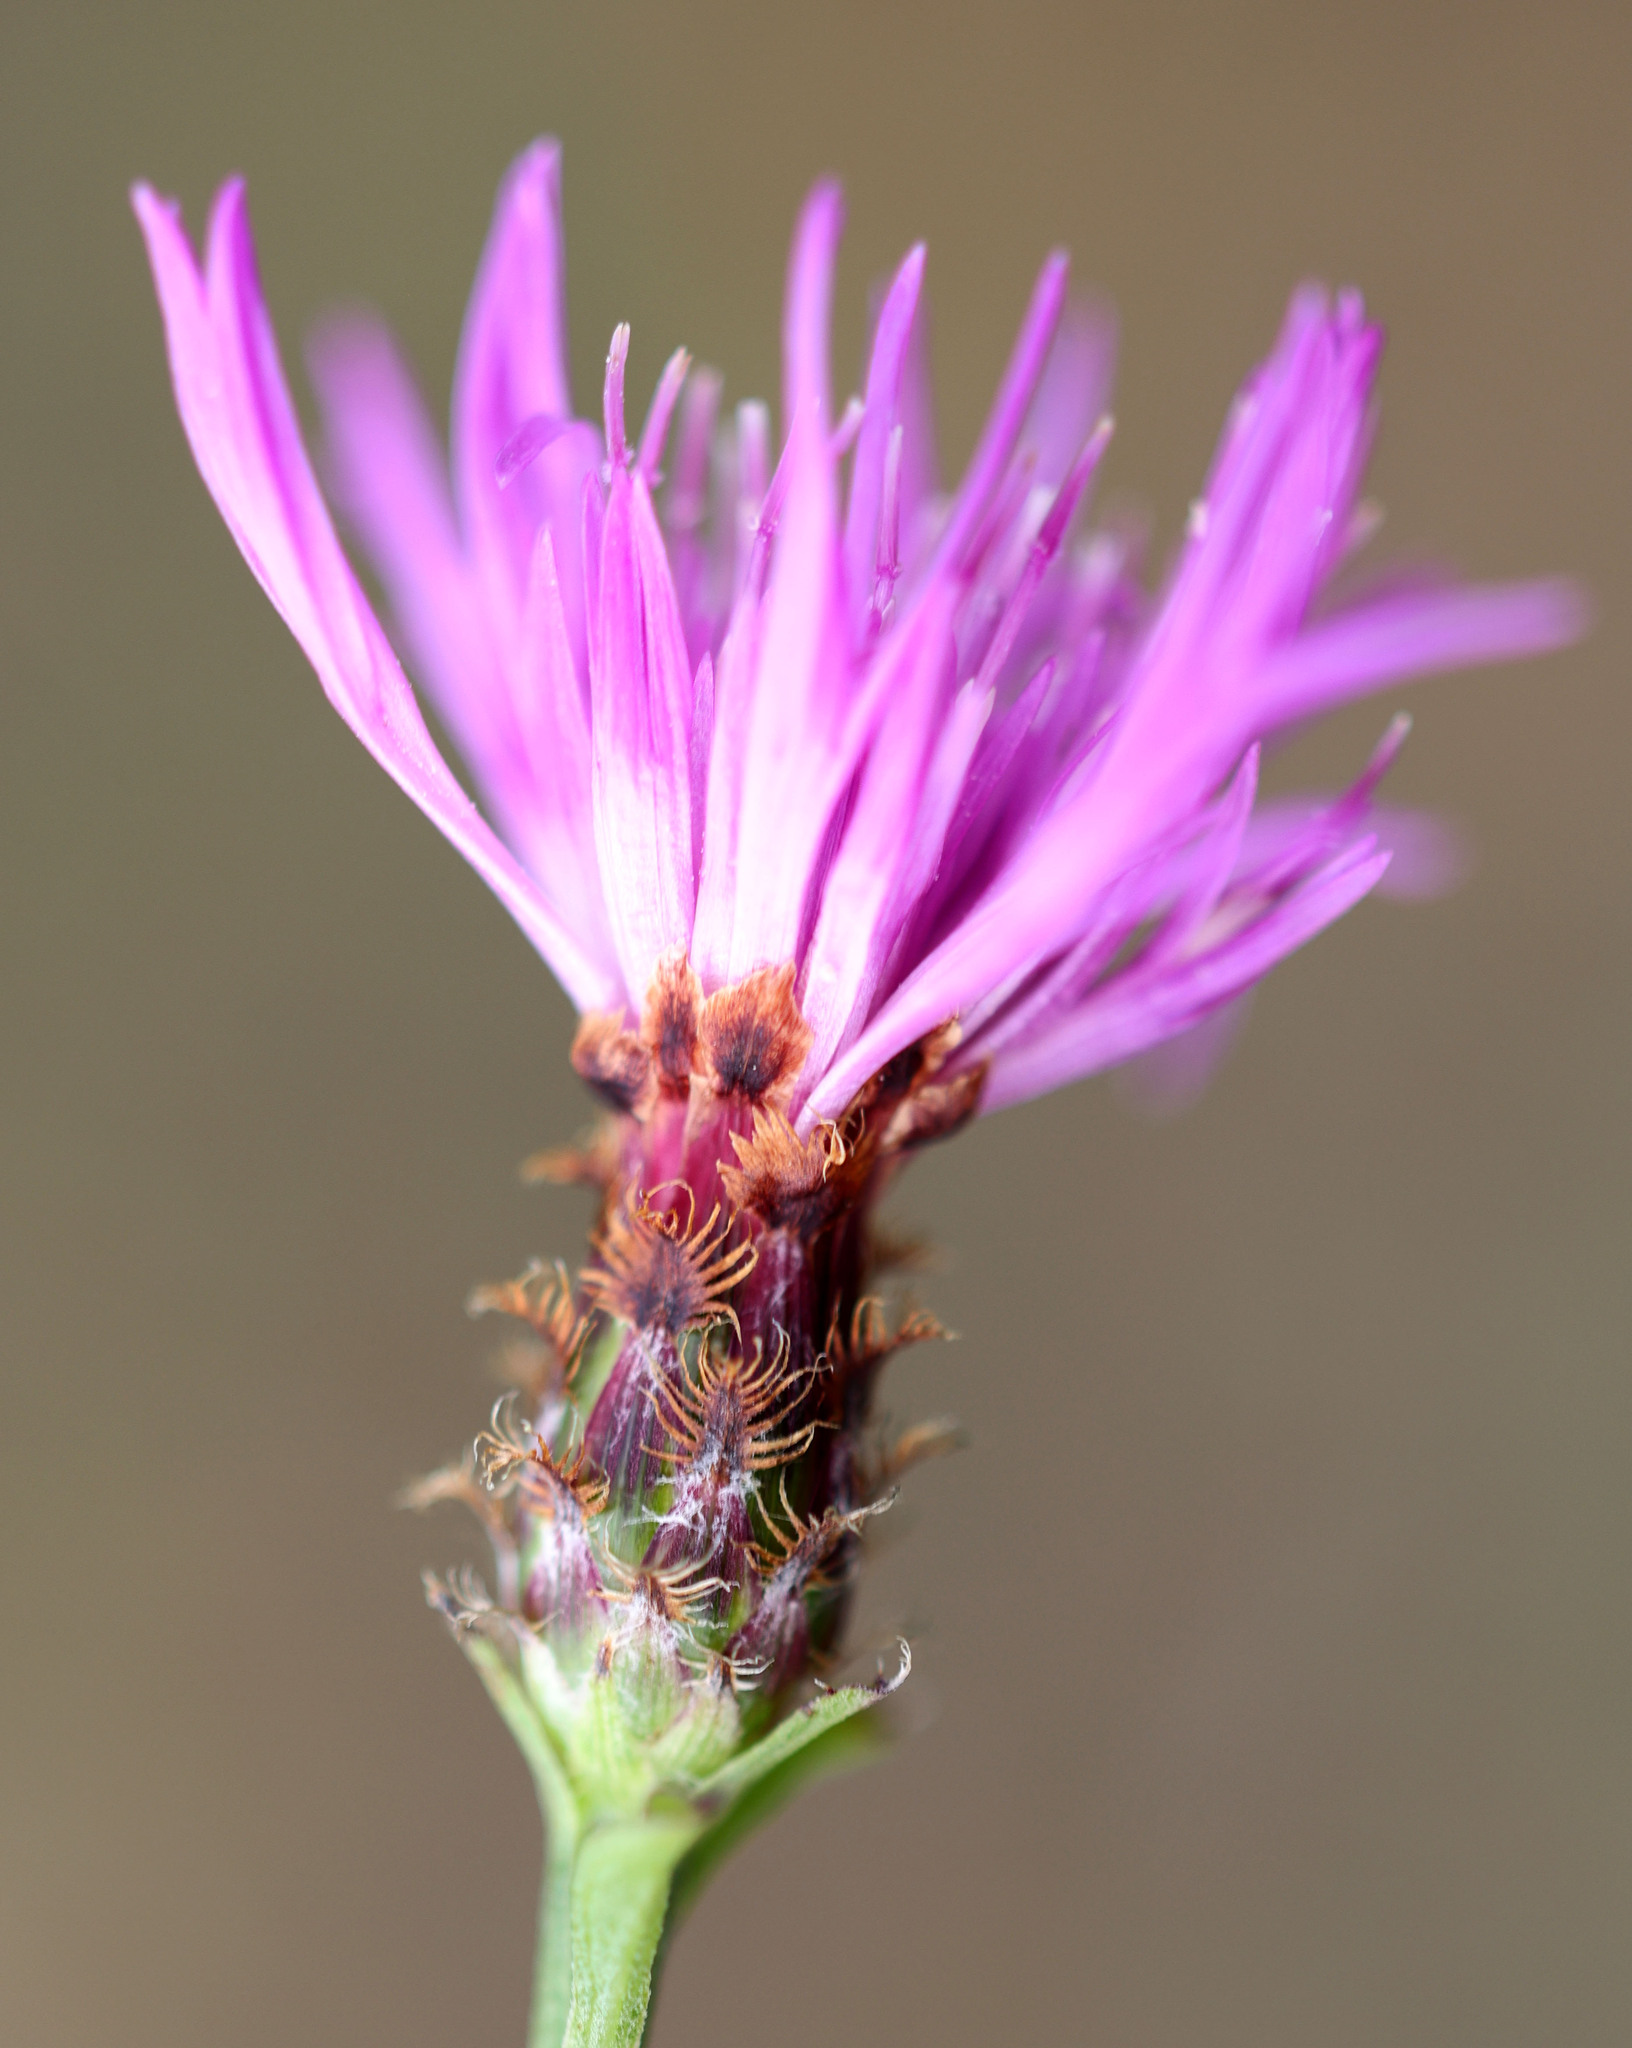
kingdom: Plantae
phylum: Tracheophyta
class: Magnoliopsida
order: Asterales
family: Asteraceae
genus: Centaurea
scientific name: Centaurea moncktonii
